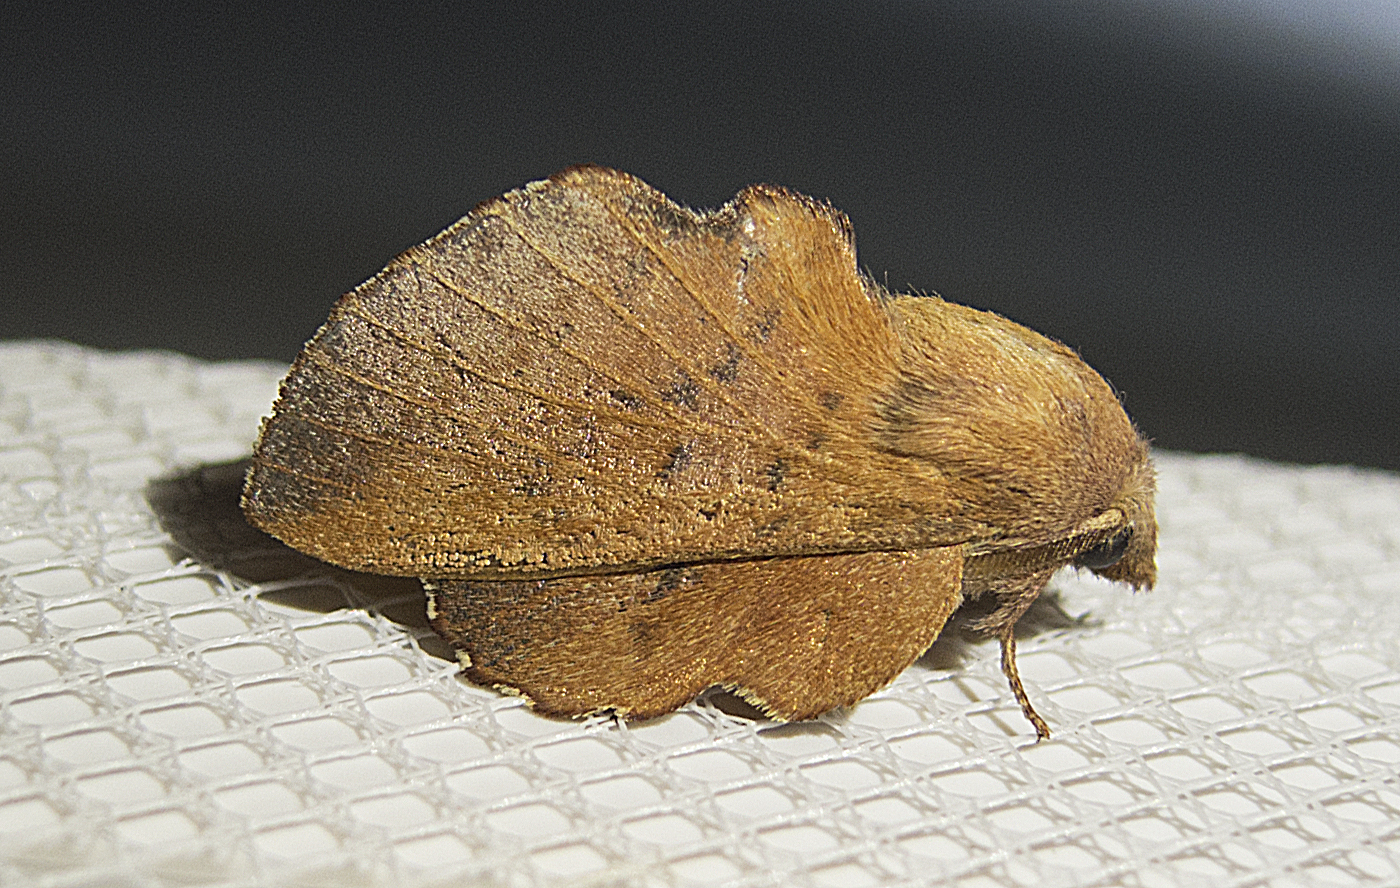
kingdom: Animalia
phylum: Arthropoda
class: Insecta
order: Lepidoptera
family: Lasiocampidae
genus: Phyllodesma
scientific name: Phyllodesma tremulifolia
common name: Aspen lappet
